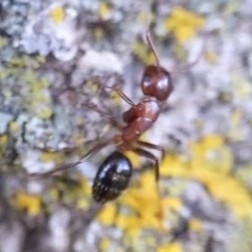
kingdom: Animalia
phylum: Arthropoda
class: Insecta
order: Hymenoptera
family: Formicidae
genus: Camponotus
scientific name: Camponotus decipiens
